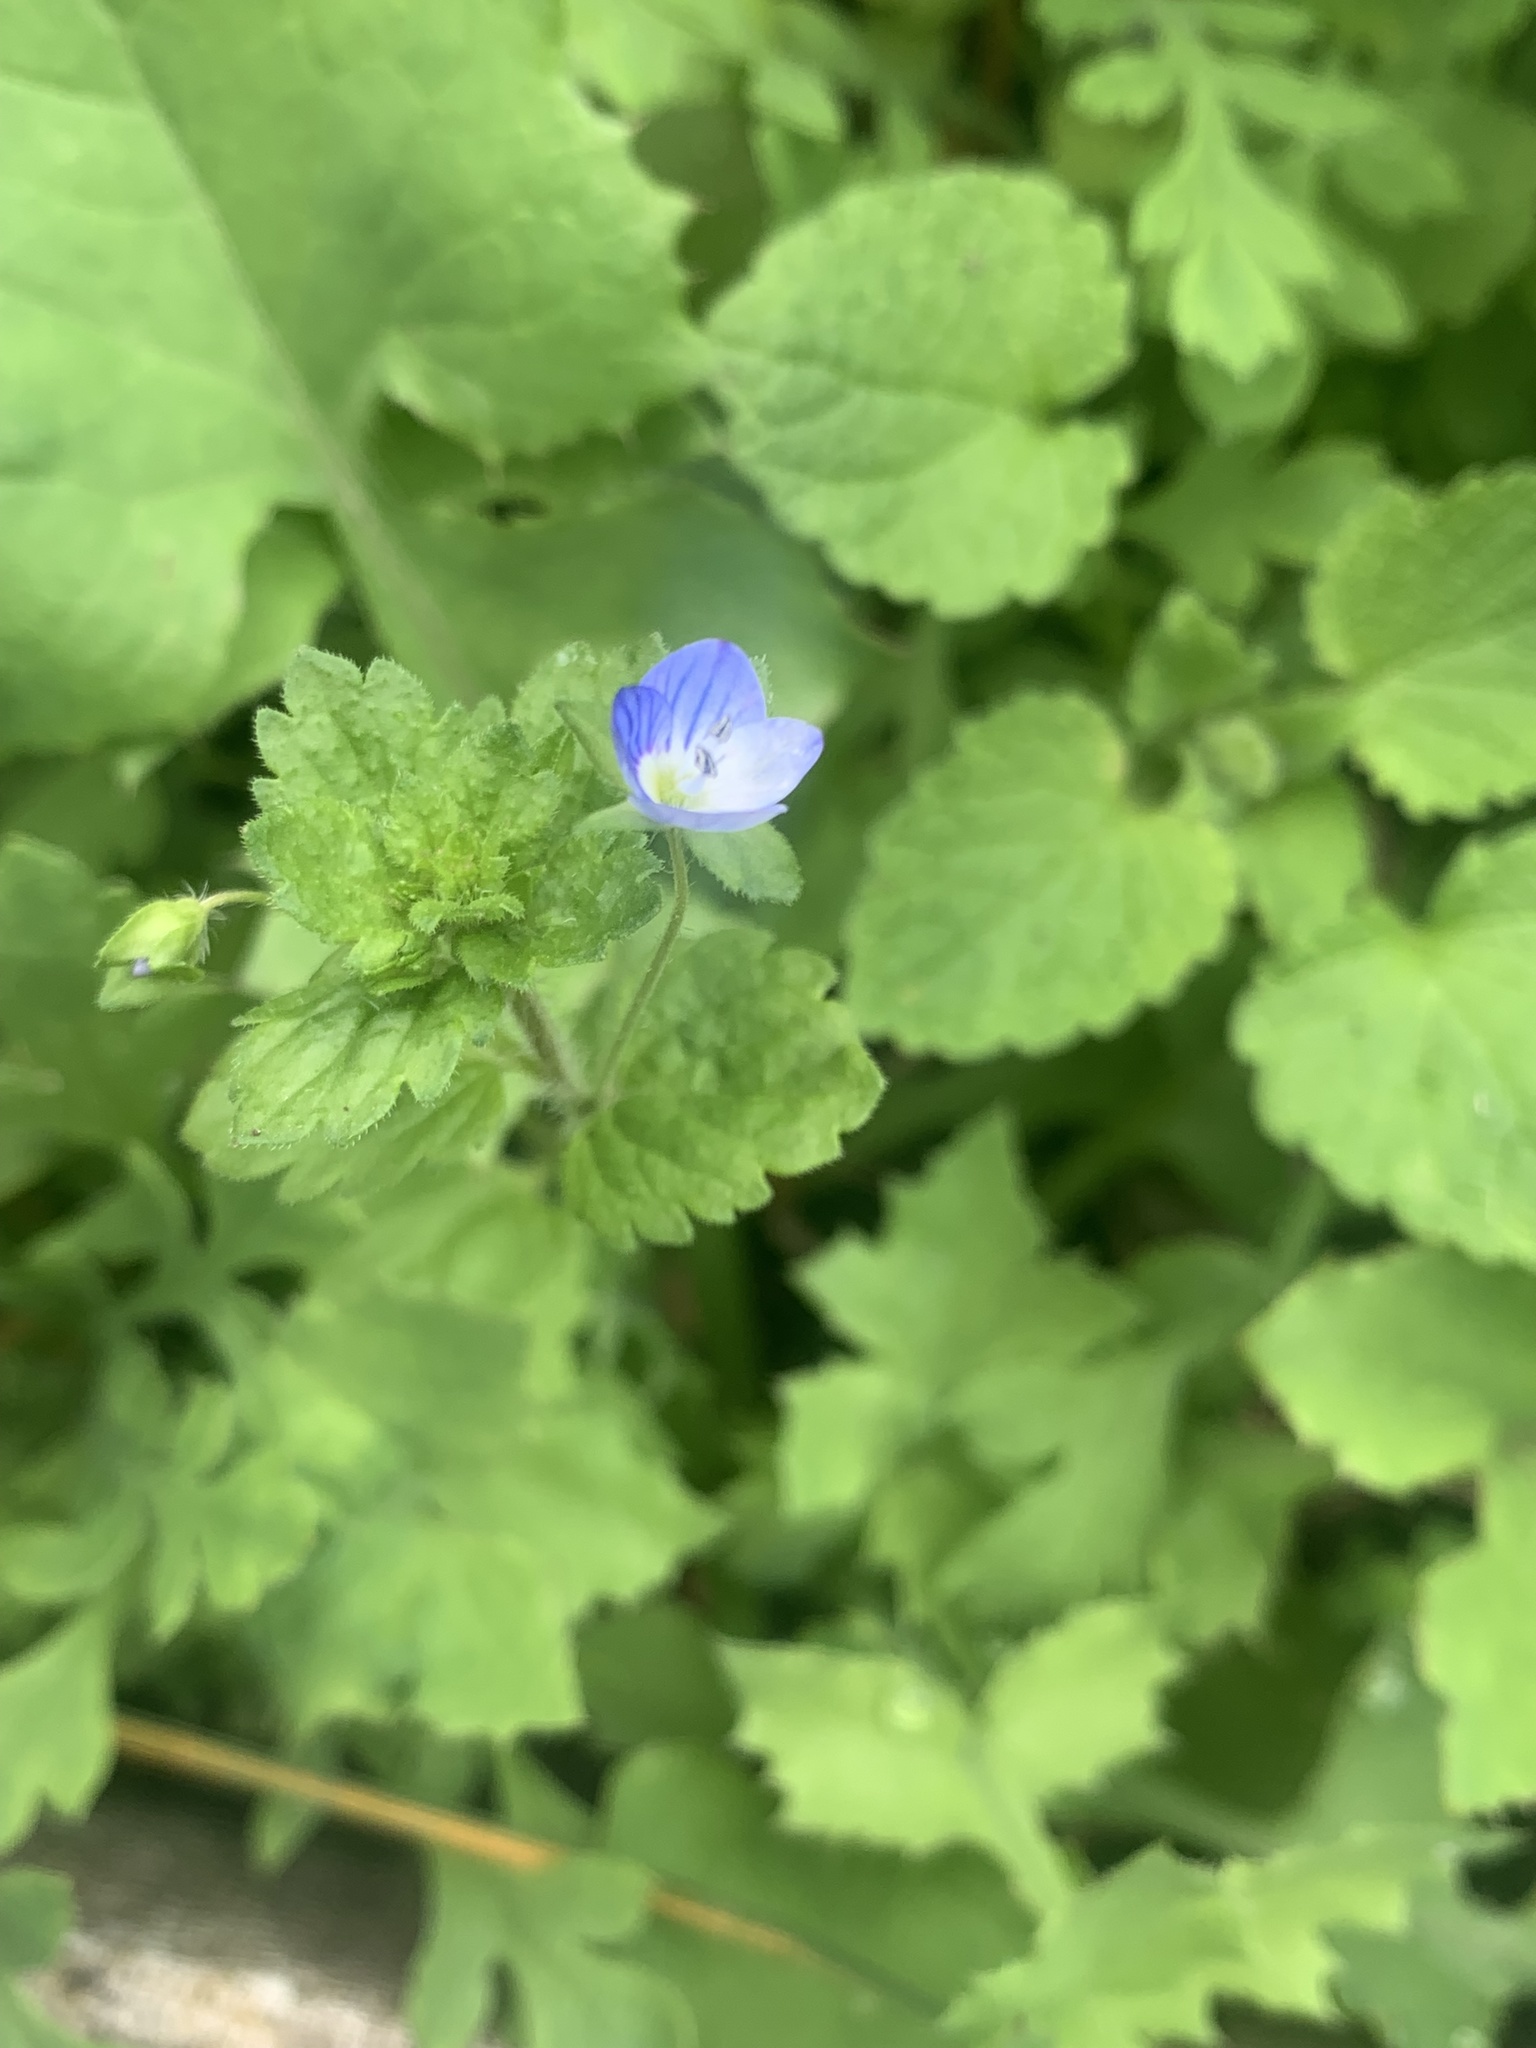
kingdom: Plantae
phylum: Tracheophyta
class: Magnoliopsida
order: Lamiales
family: Plantaginaceae
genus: Veronica
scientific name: Veronica persica
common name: Common field-speedwell
